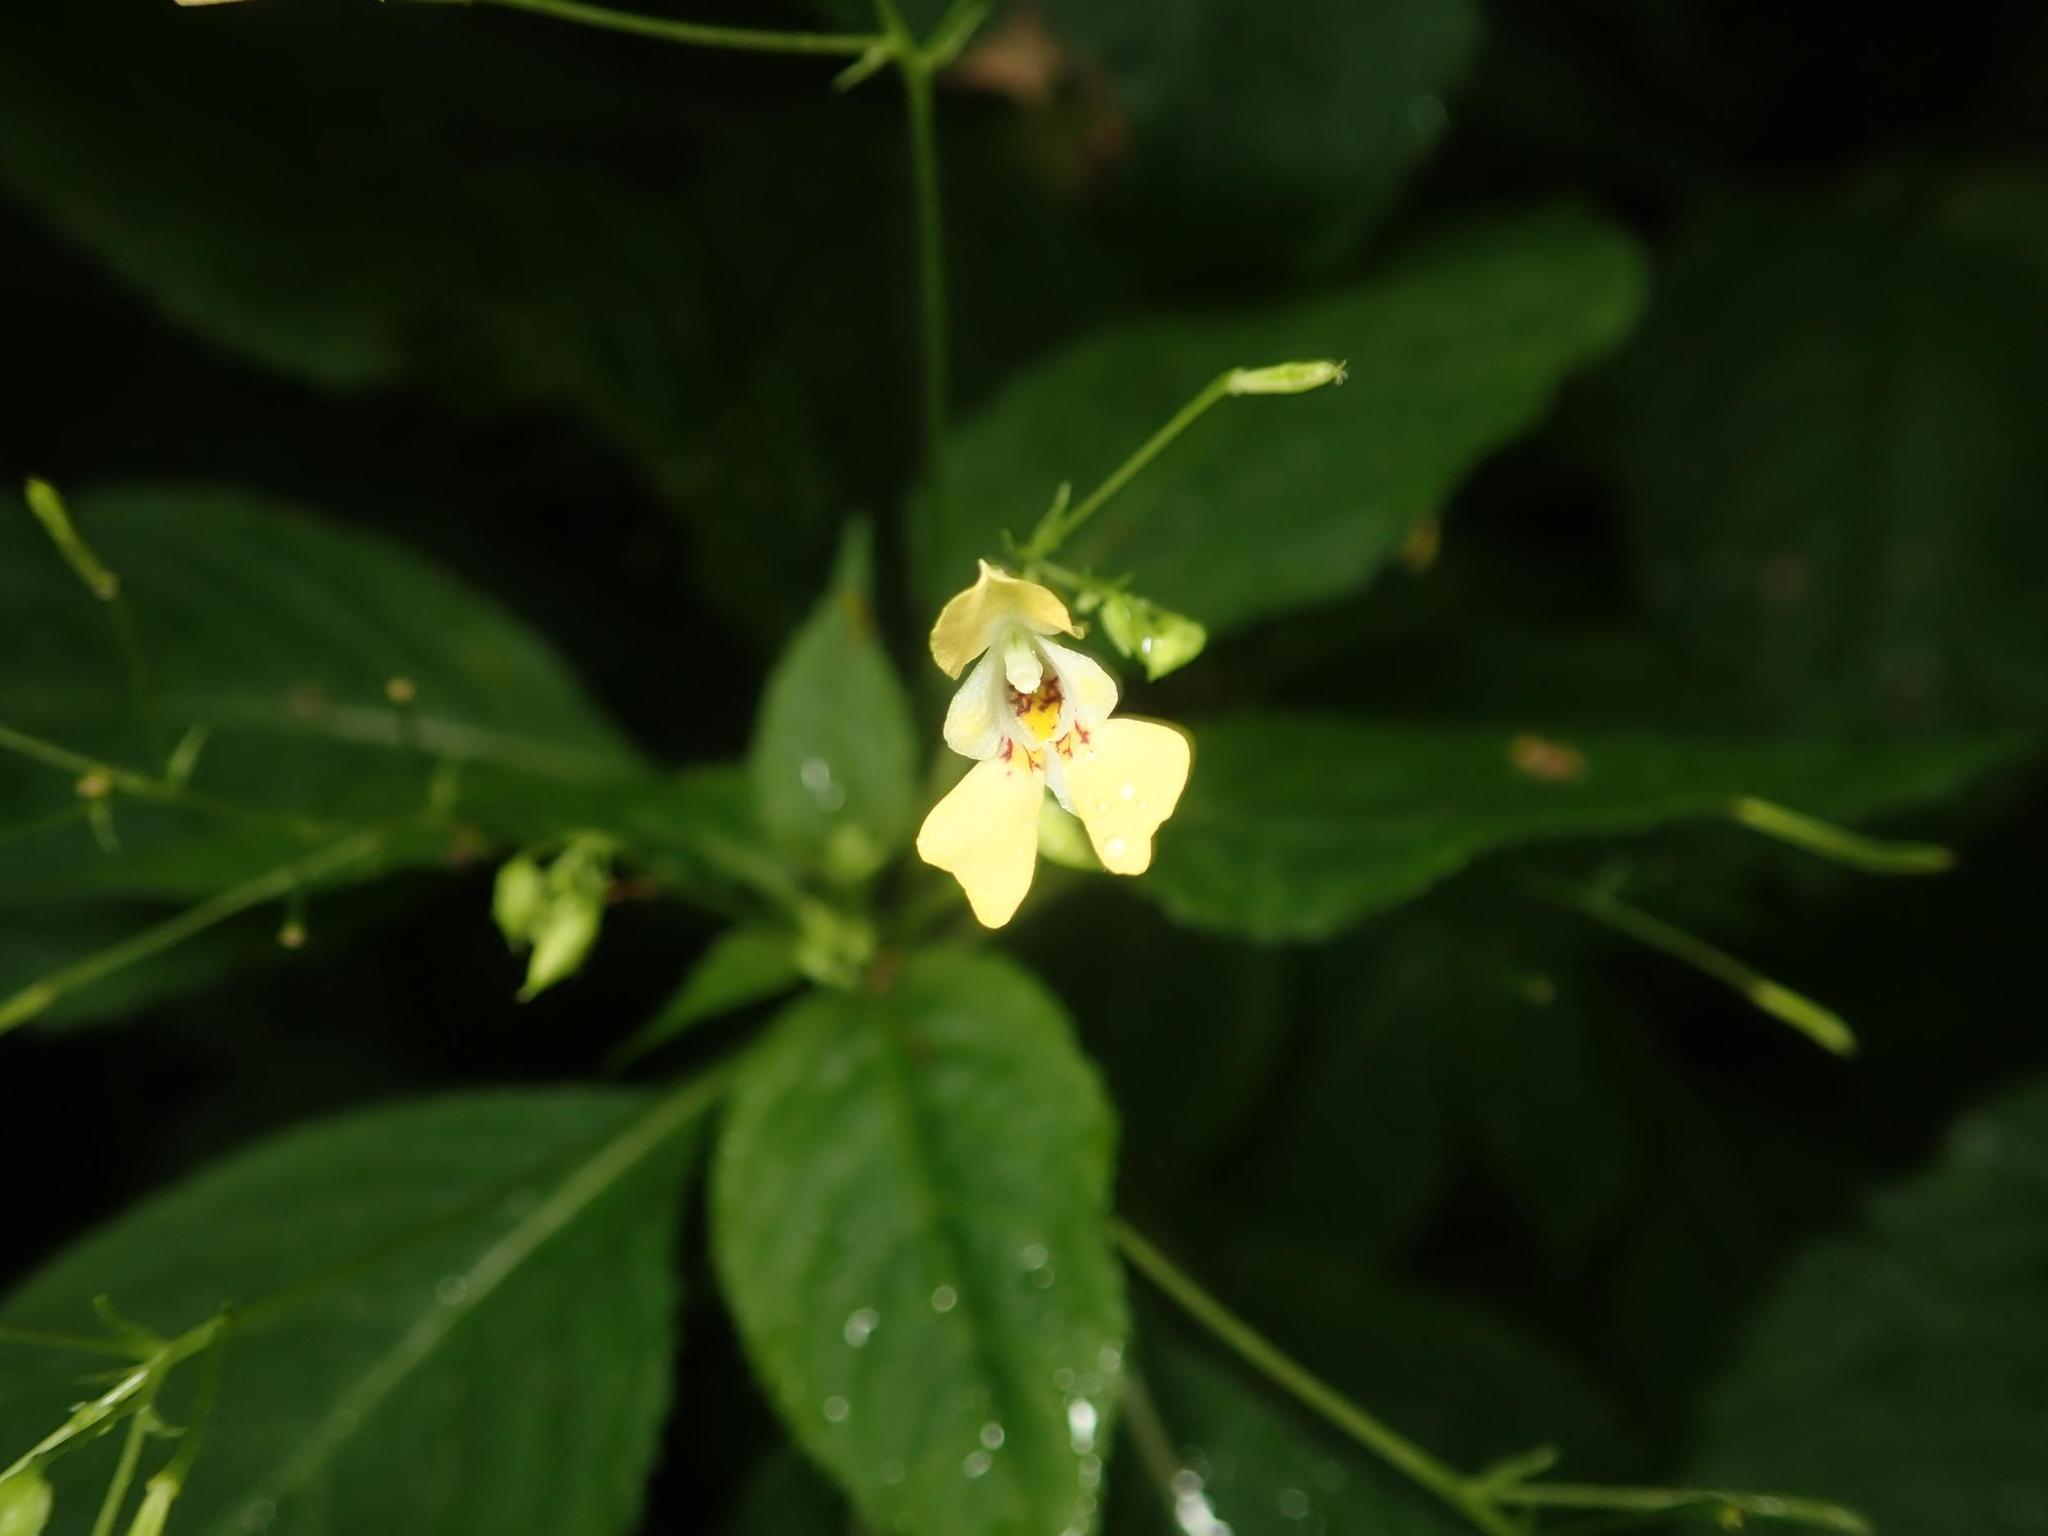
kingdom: Plantae
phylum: Tracheophyta
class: Magnoliopsida
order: Ericales
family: Balsaminaceae
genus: Impatiens
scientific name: Impatiens parviflora
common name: Small balsam
